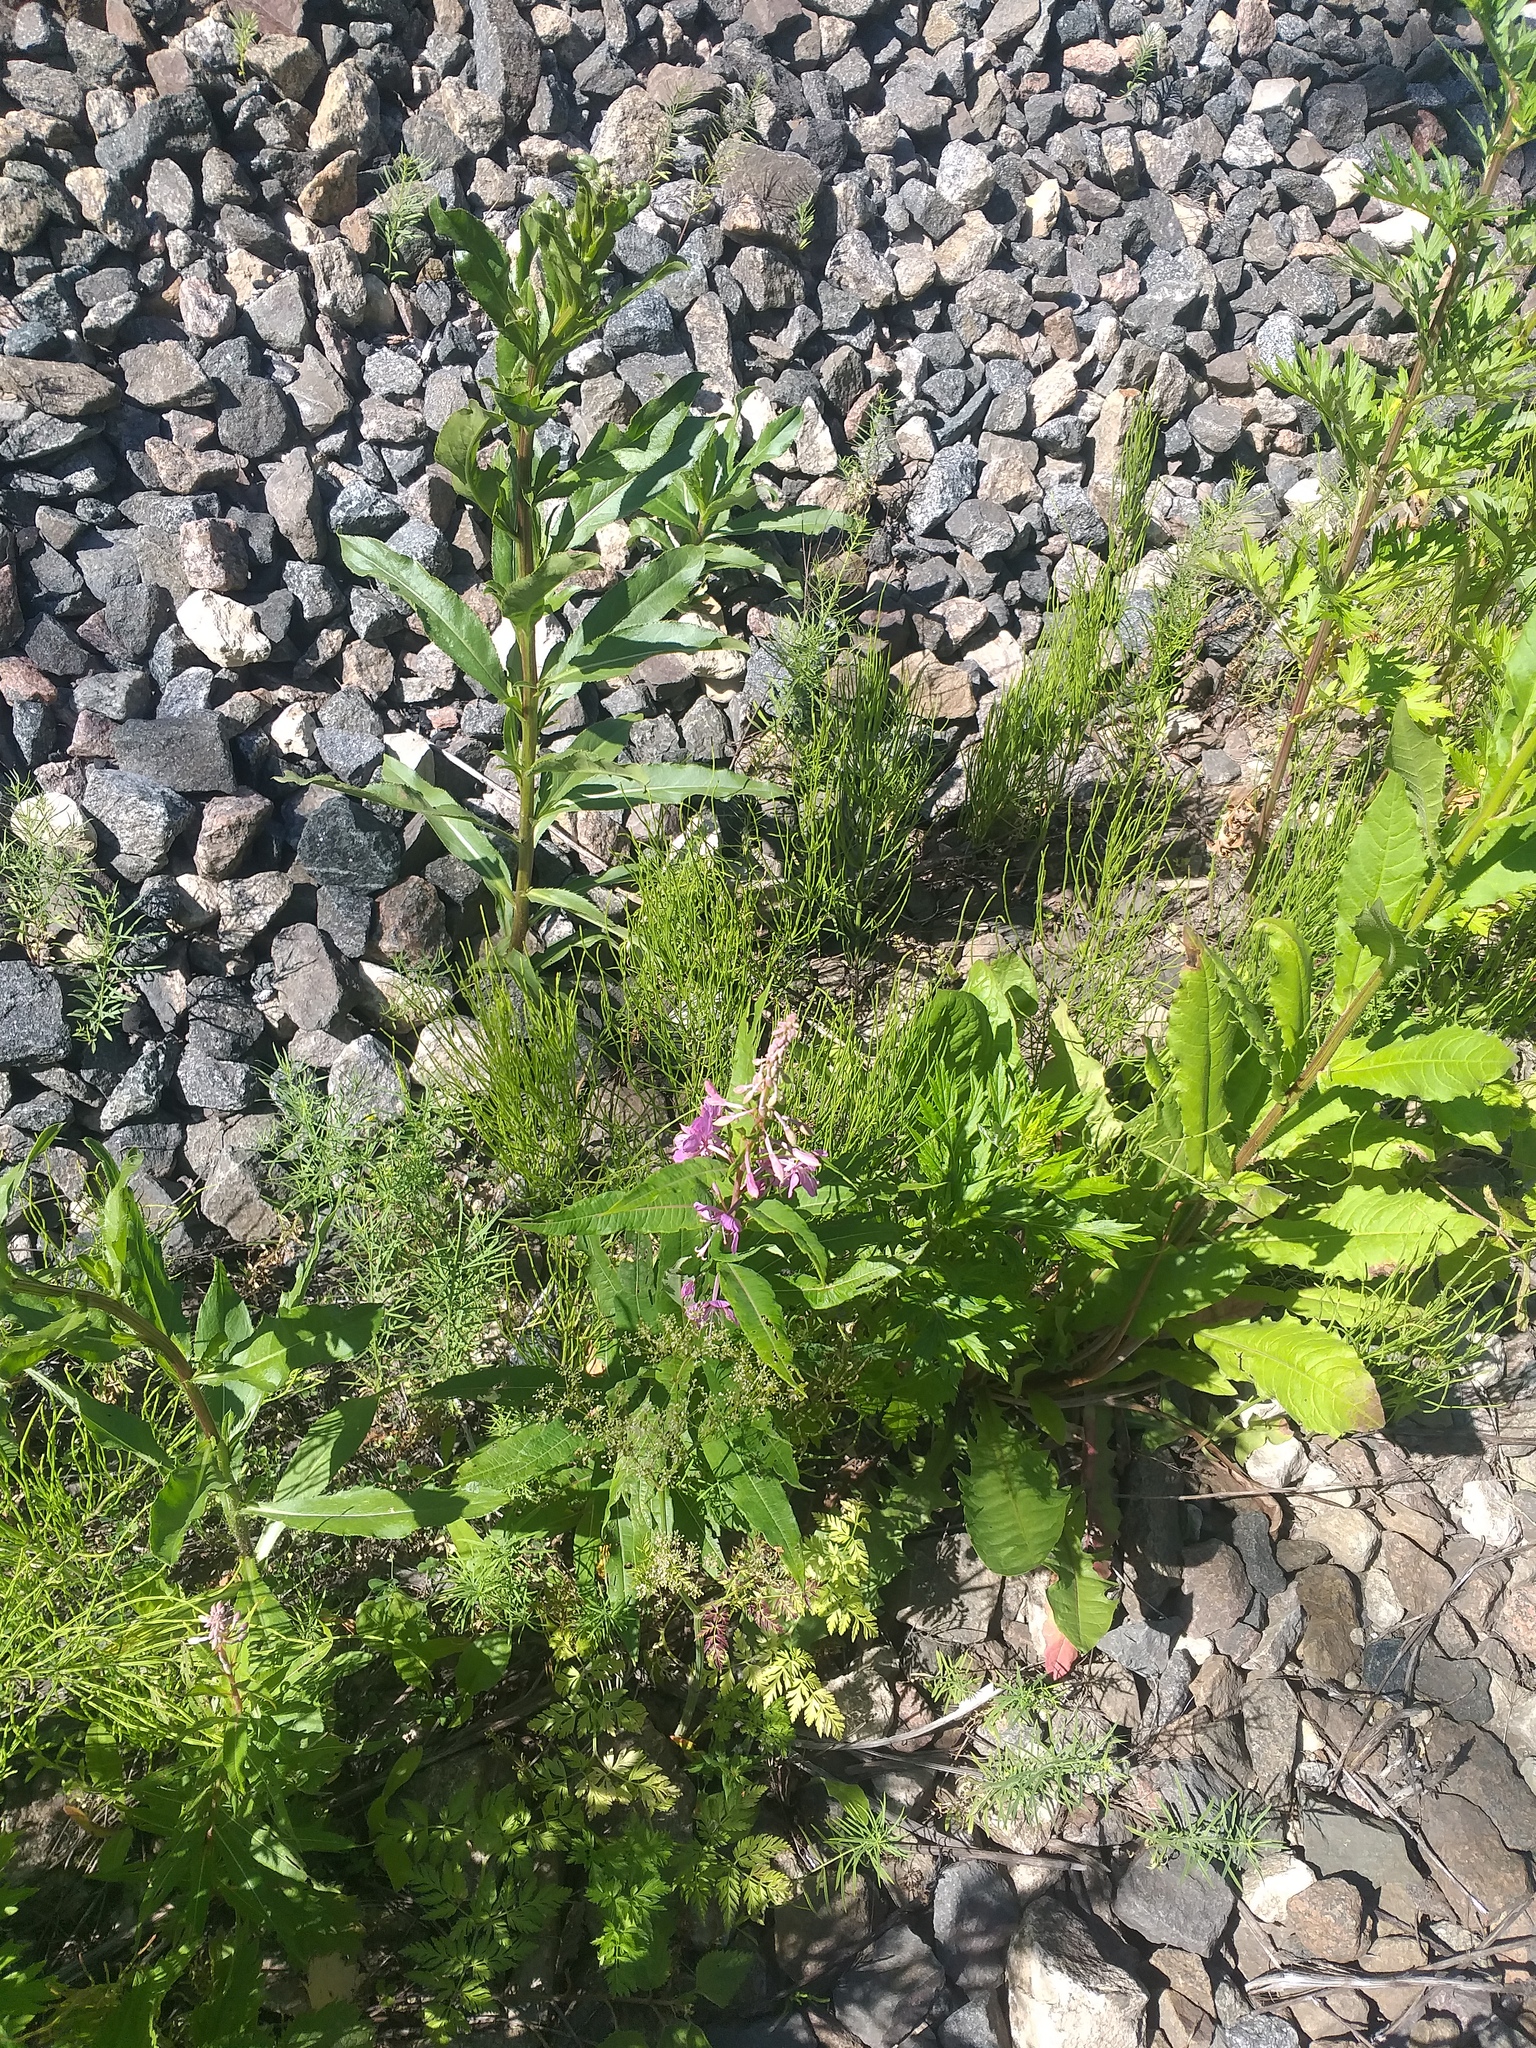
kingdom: Plantae
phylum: Tracheophyta
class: Magnoliopsida
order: Myrtales
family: Onagraceae
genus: Chamaenerion
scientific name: Chamaenerion angustifolium
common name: Fireweed
